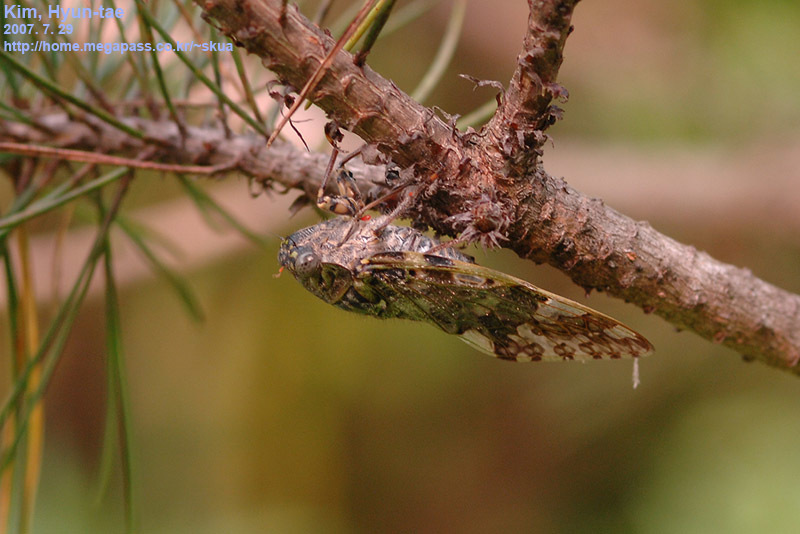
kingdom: Animalia
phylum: Arthropoda
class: Insecta
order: Hemiptera
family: Cicadidae
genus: Platypleura
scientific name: Platypleura kaempferi
